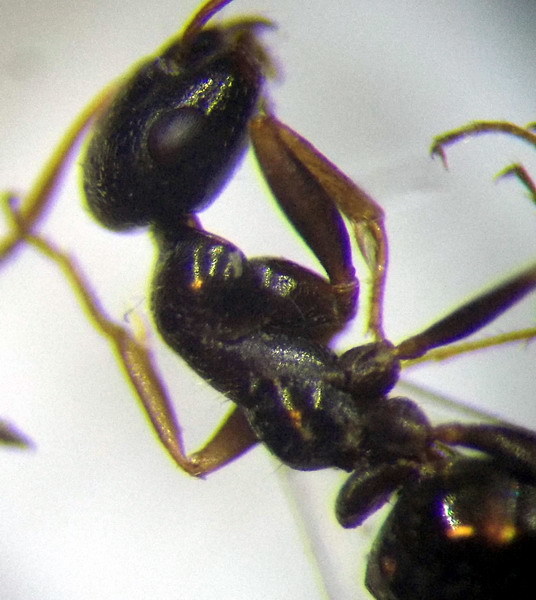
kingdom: Animalia
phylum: Arthropoda
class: Insecta
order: Hymenoptera
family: Formicidae
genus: Proformica
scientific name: Proformica epinotalis
